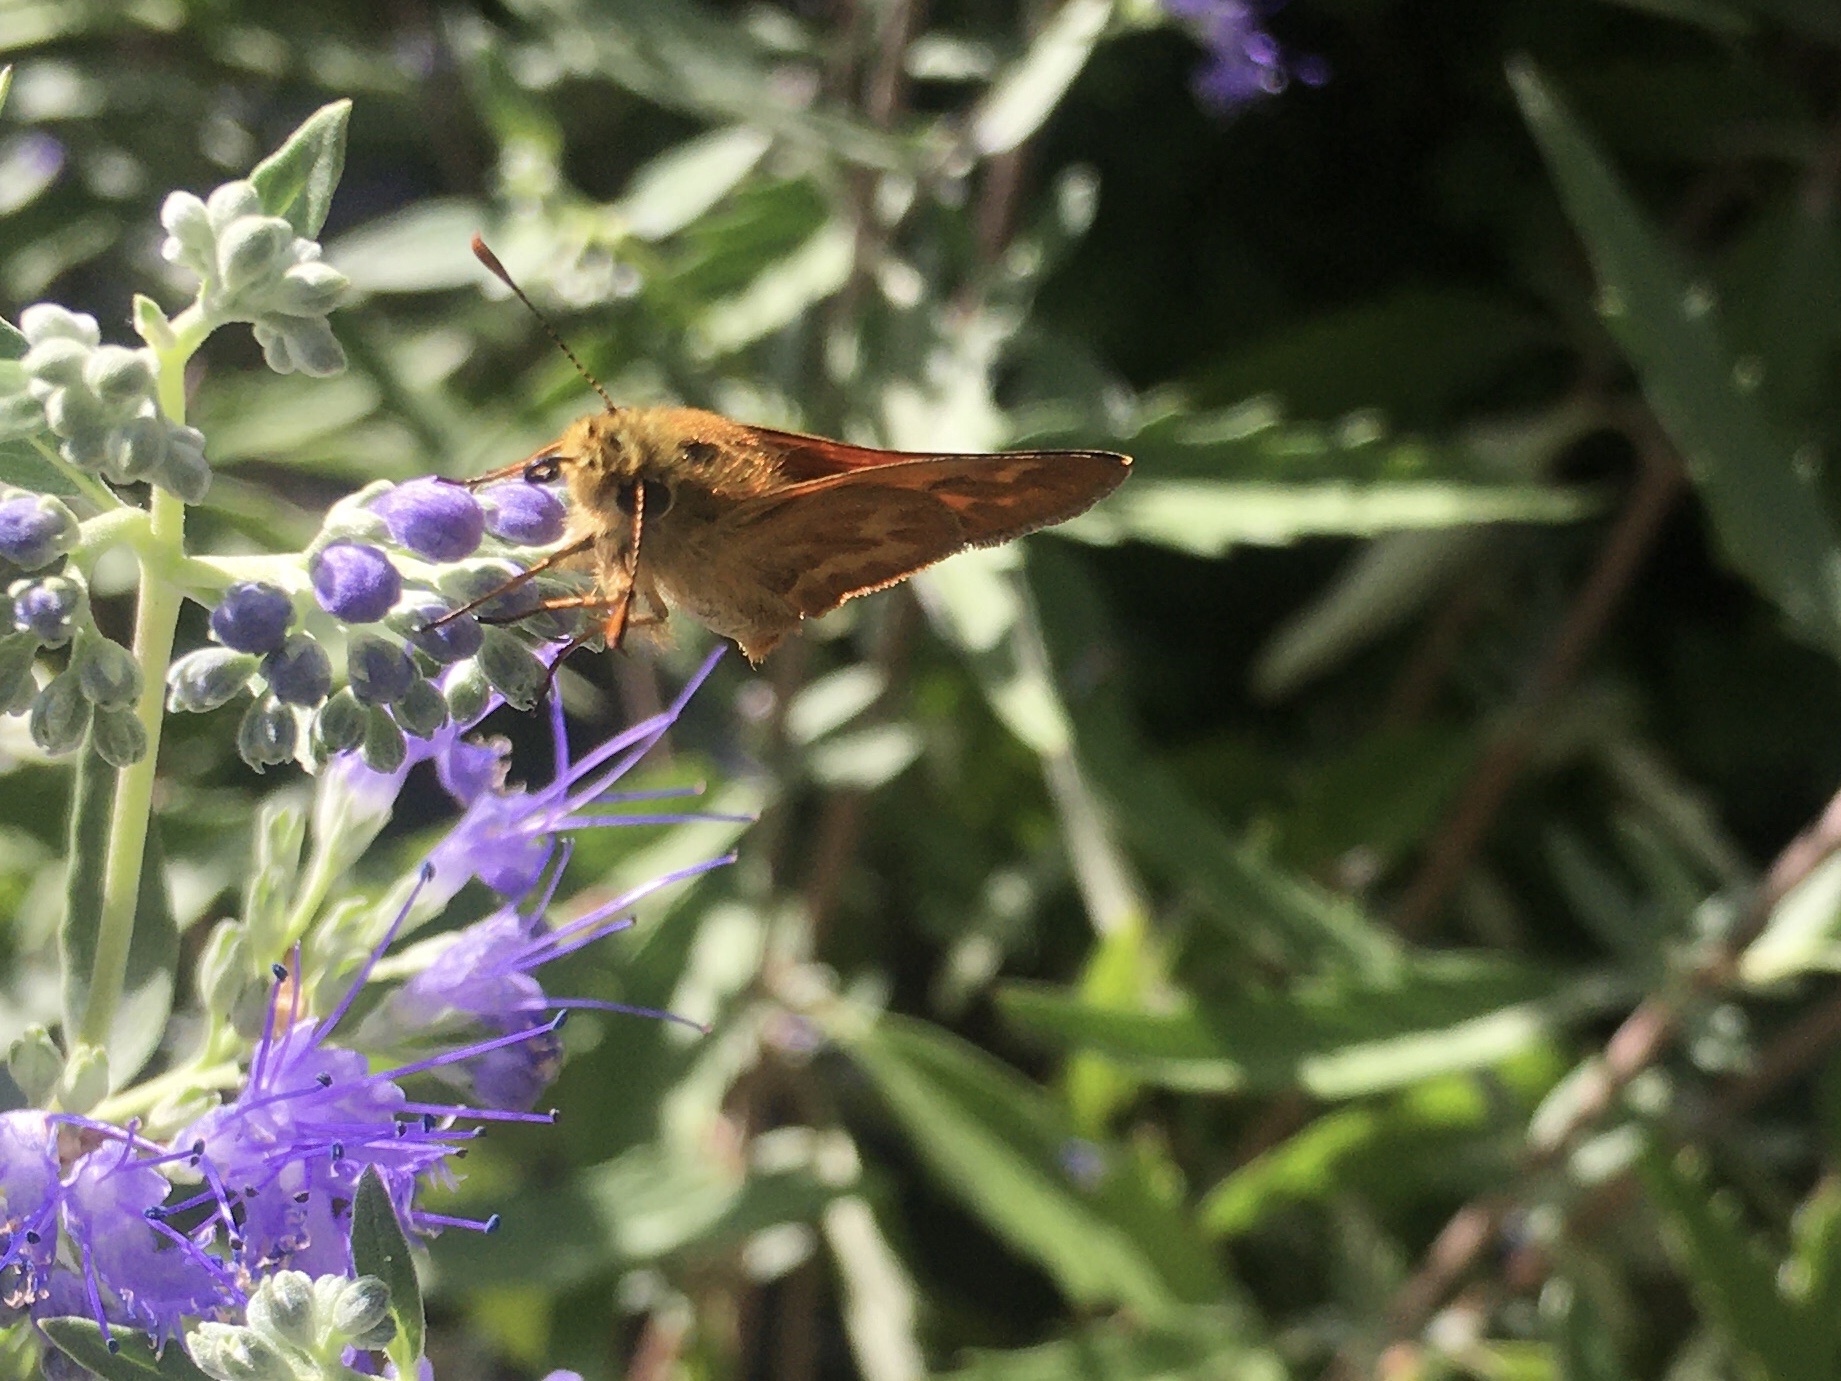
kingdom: Animalia
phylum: Arthropoda
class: Insecta
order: Lepidoptera
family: Hesperiidae
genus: Ochlodes
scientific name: Ochlodes sylvanoides
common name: Woodland skipper
